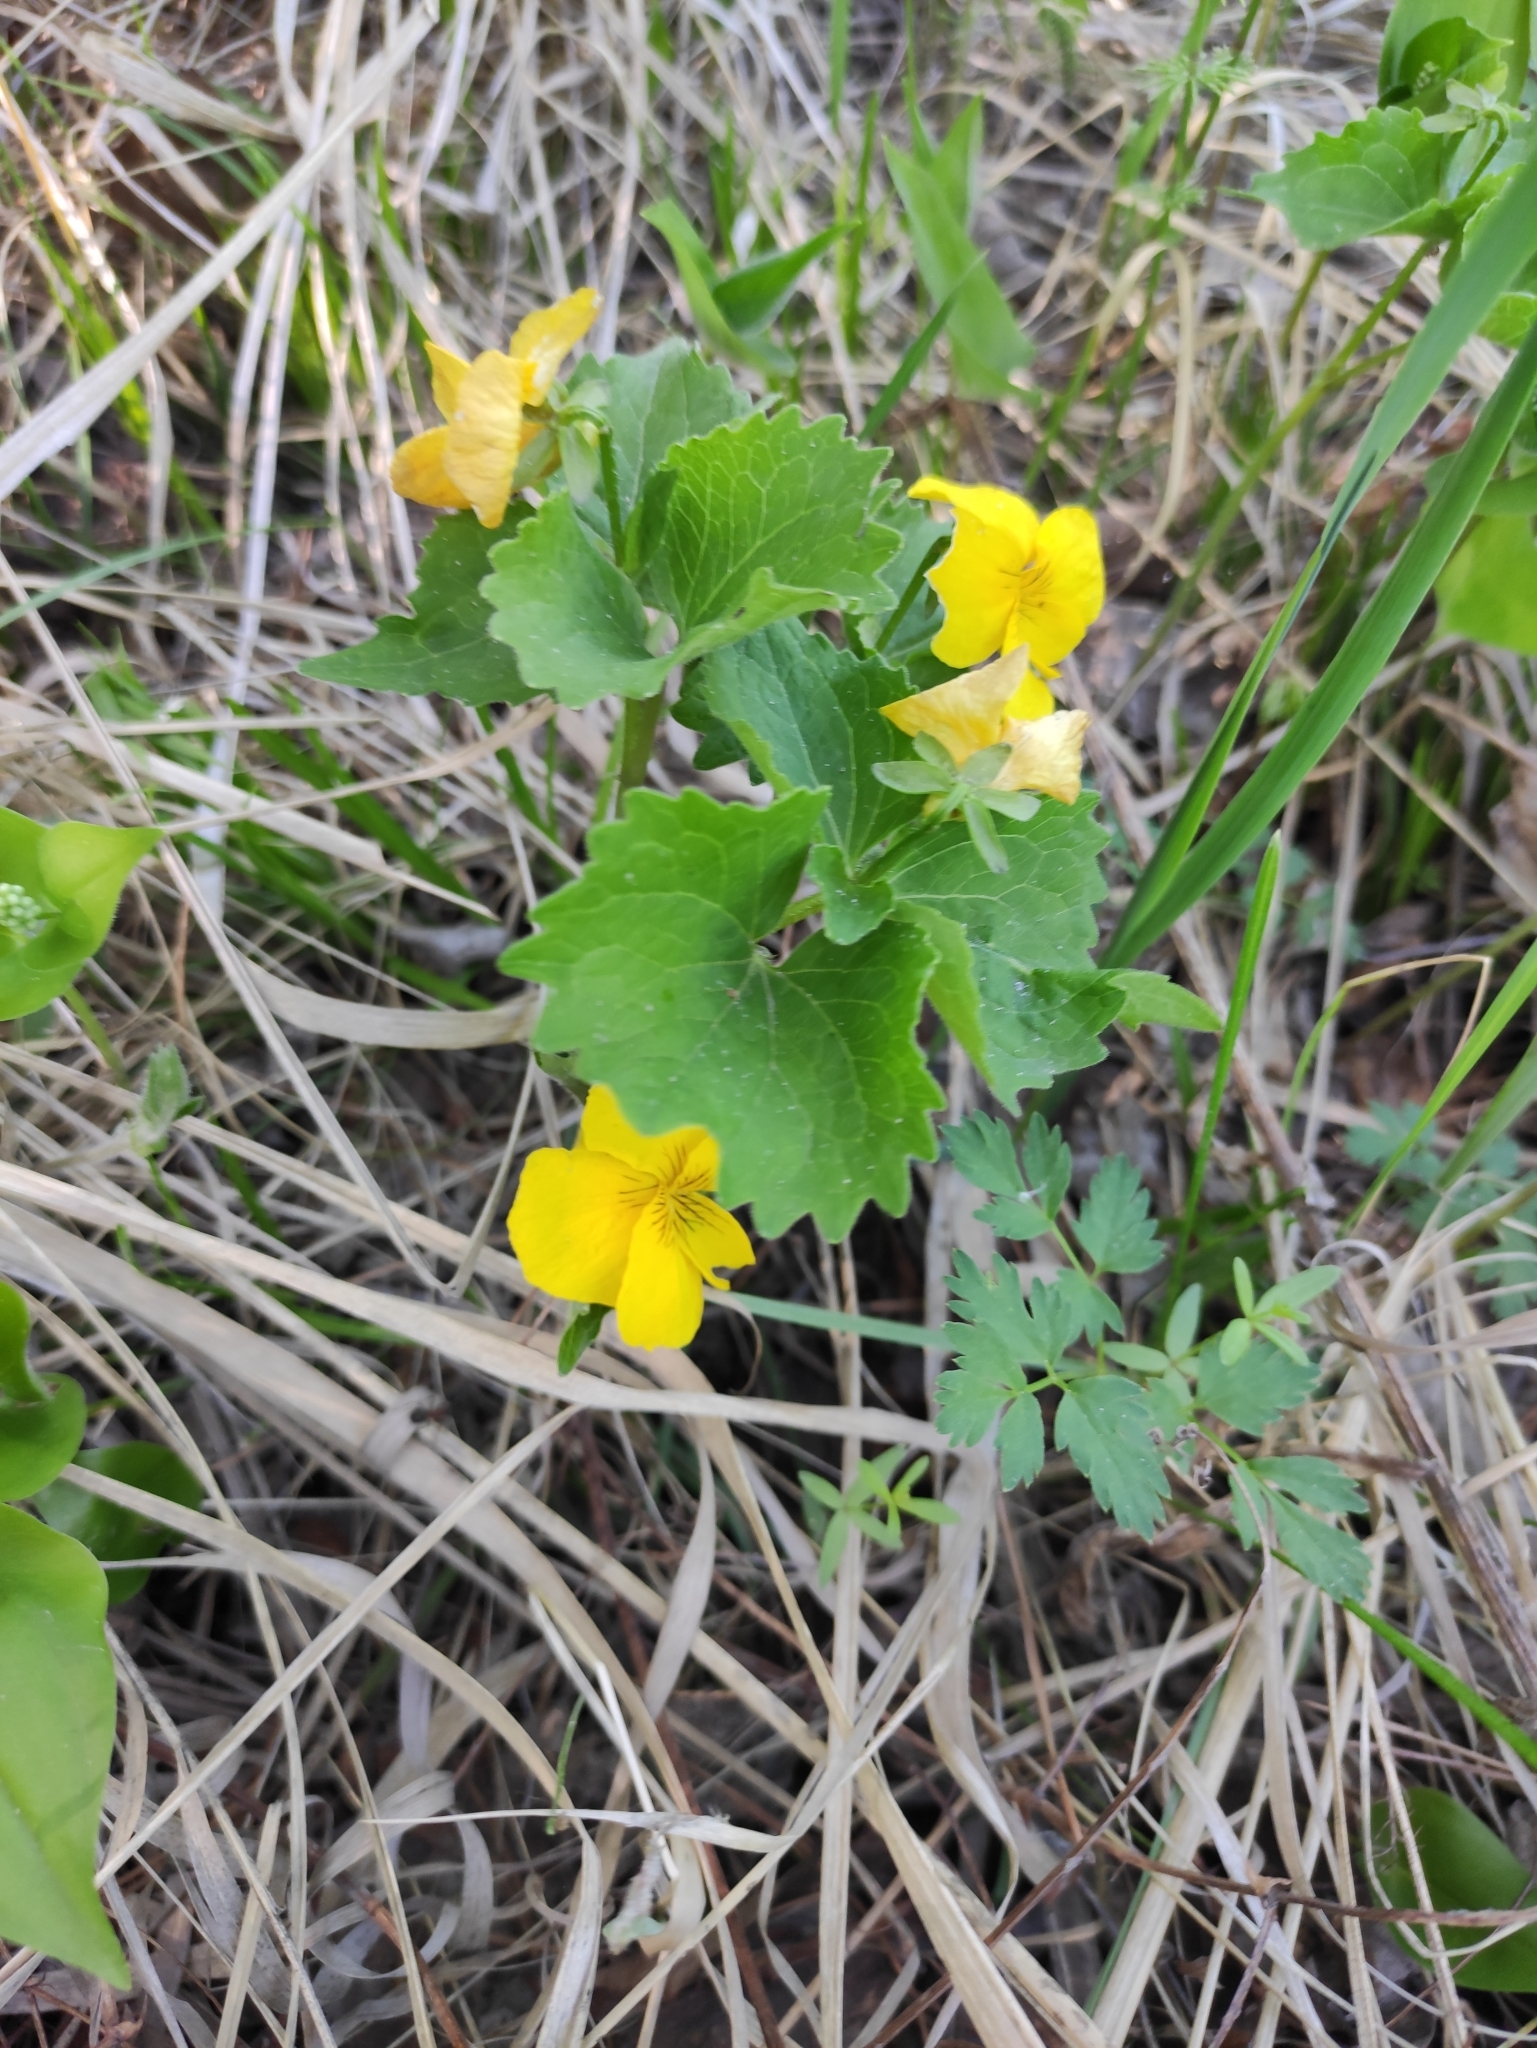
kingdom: Plantae
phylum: Tracheophyta
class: Magnoliopsida
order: Malpighiales
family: Violaceae
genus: Viola
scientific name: Viola uniflora
